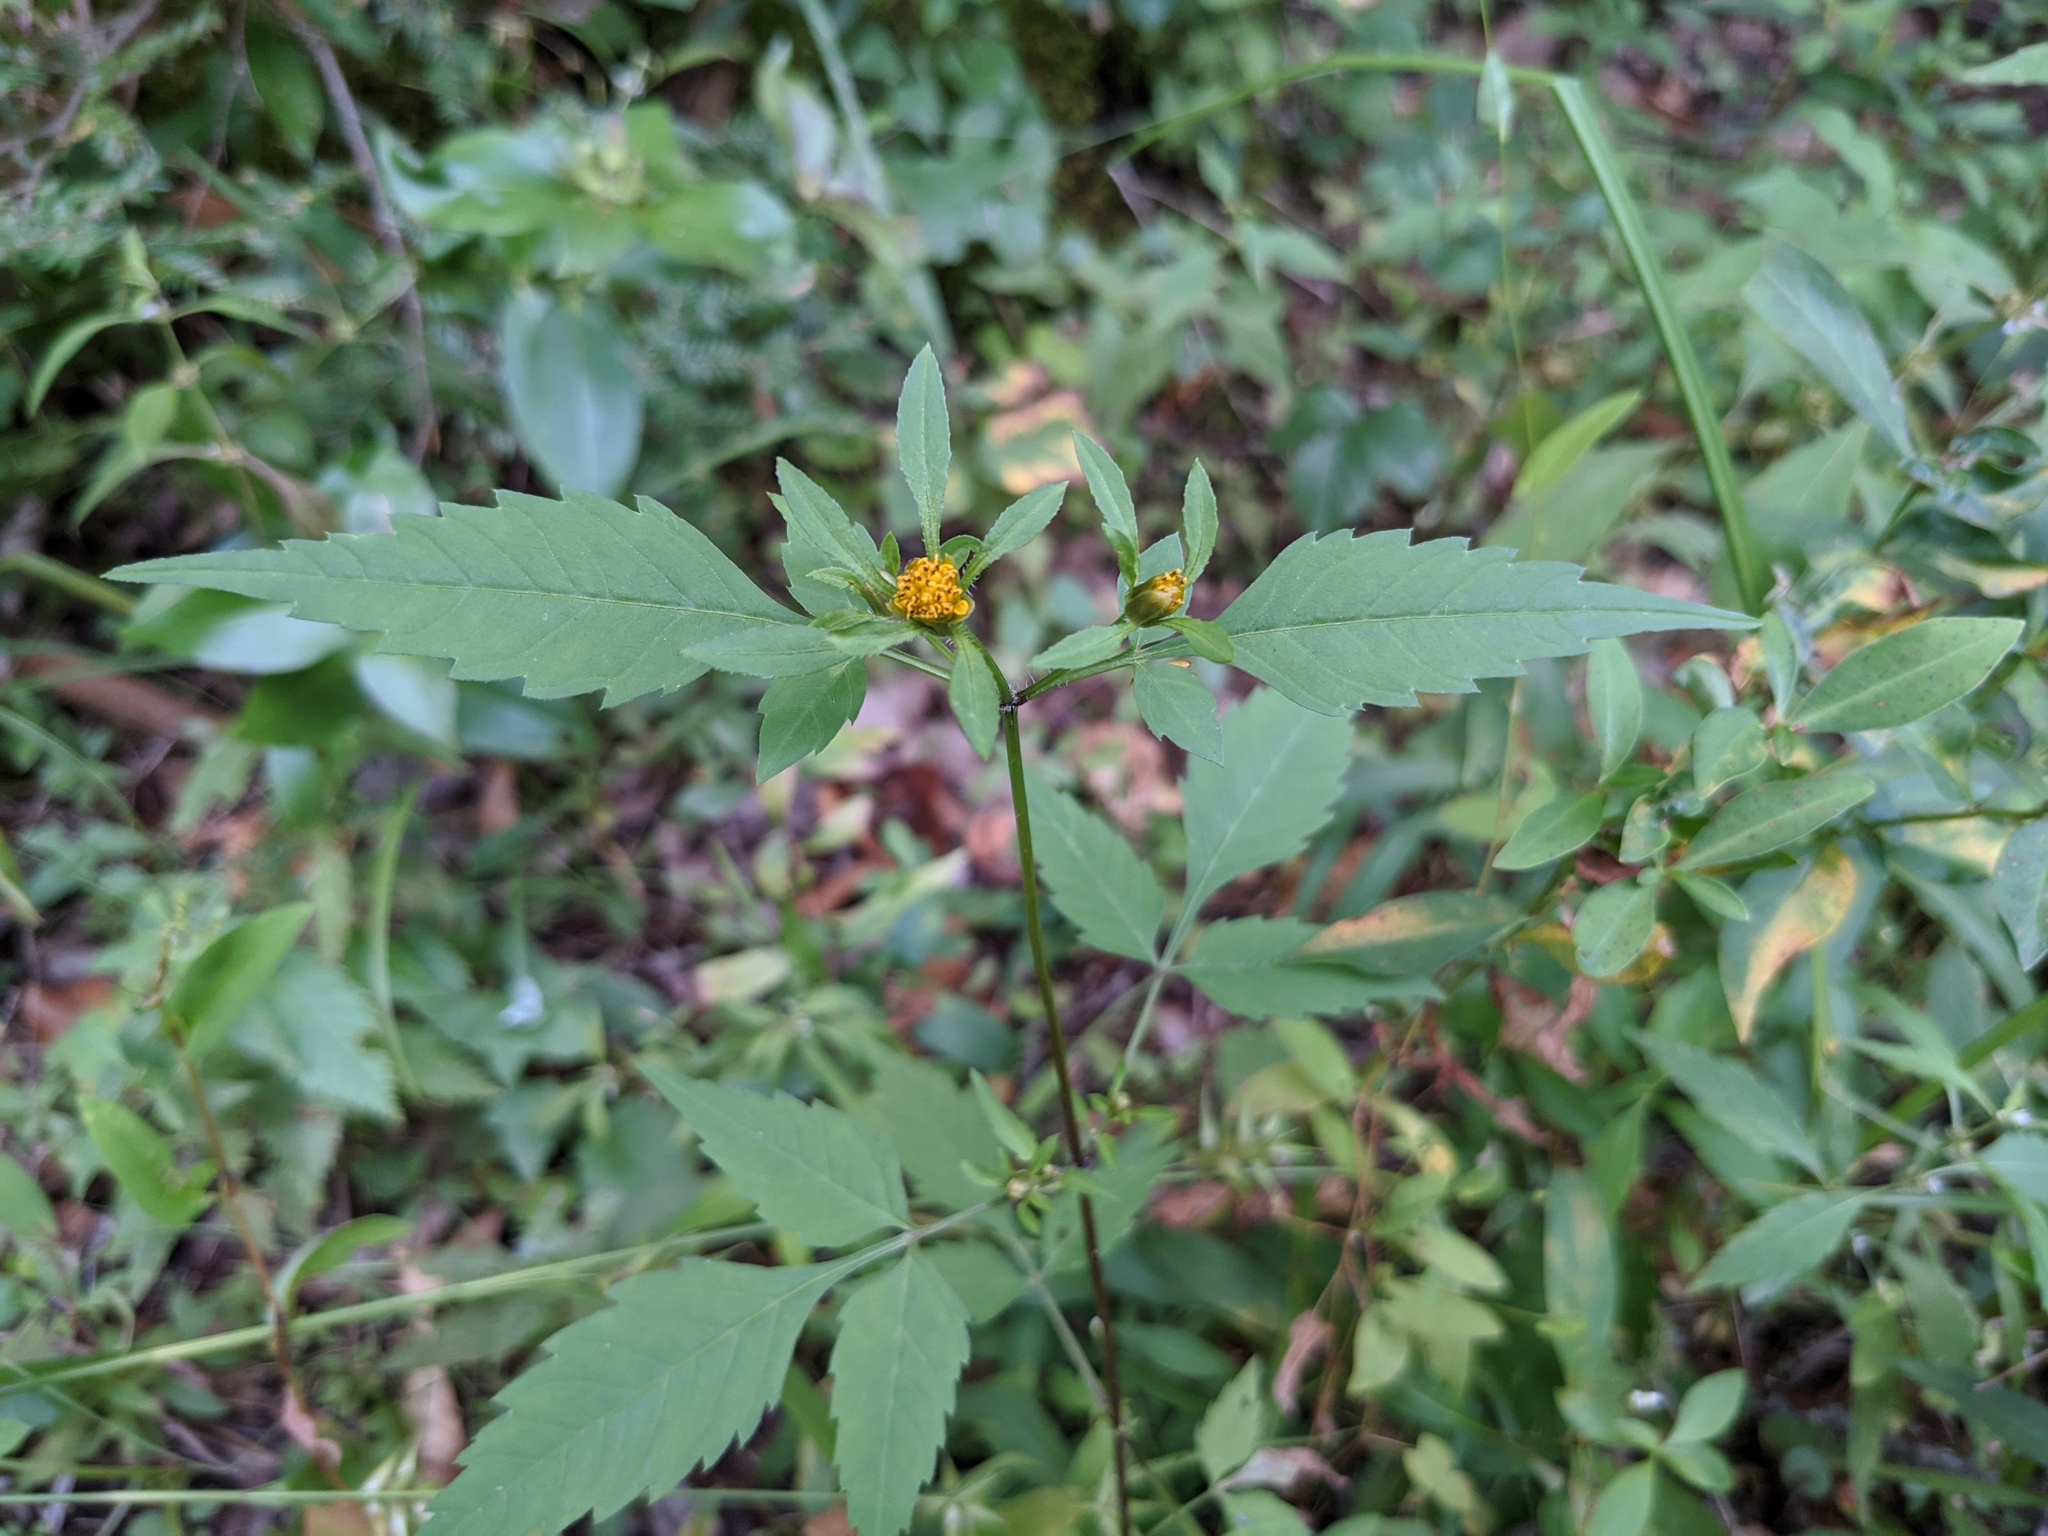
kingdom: Plantae
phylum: Tracheophyta
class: Magnoliopsida
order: Asterales
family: Asteraceae
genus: Bidens
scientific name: Bidens frondosa
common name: Beggarticks
